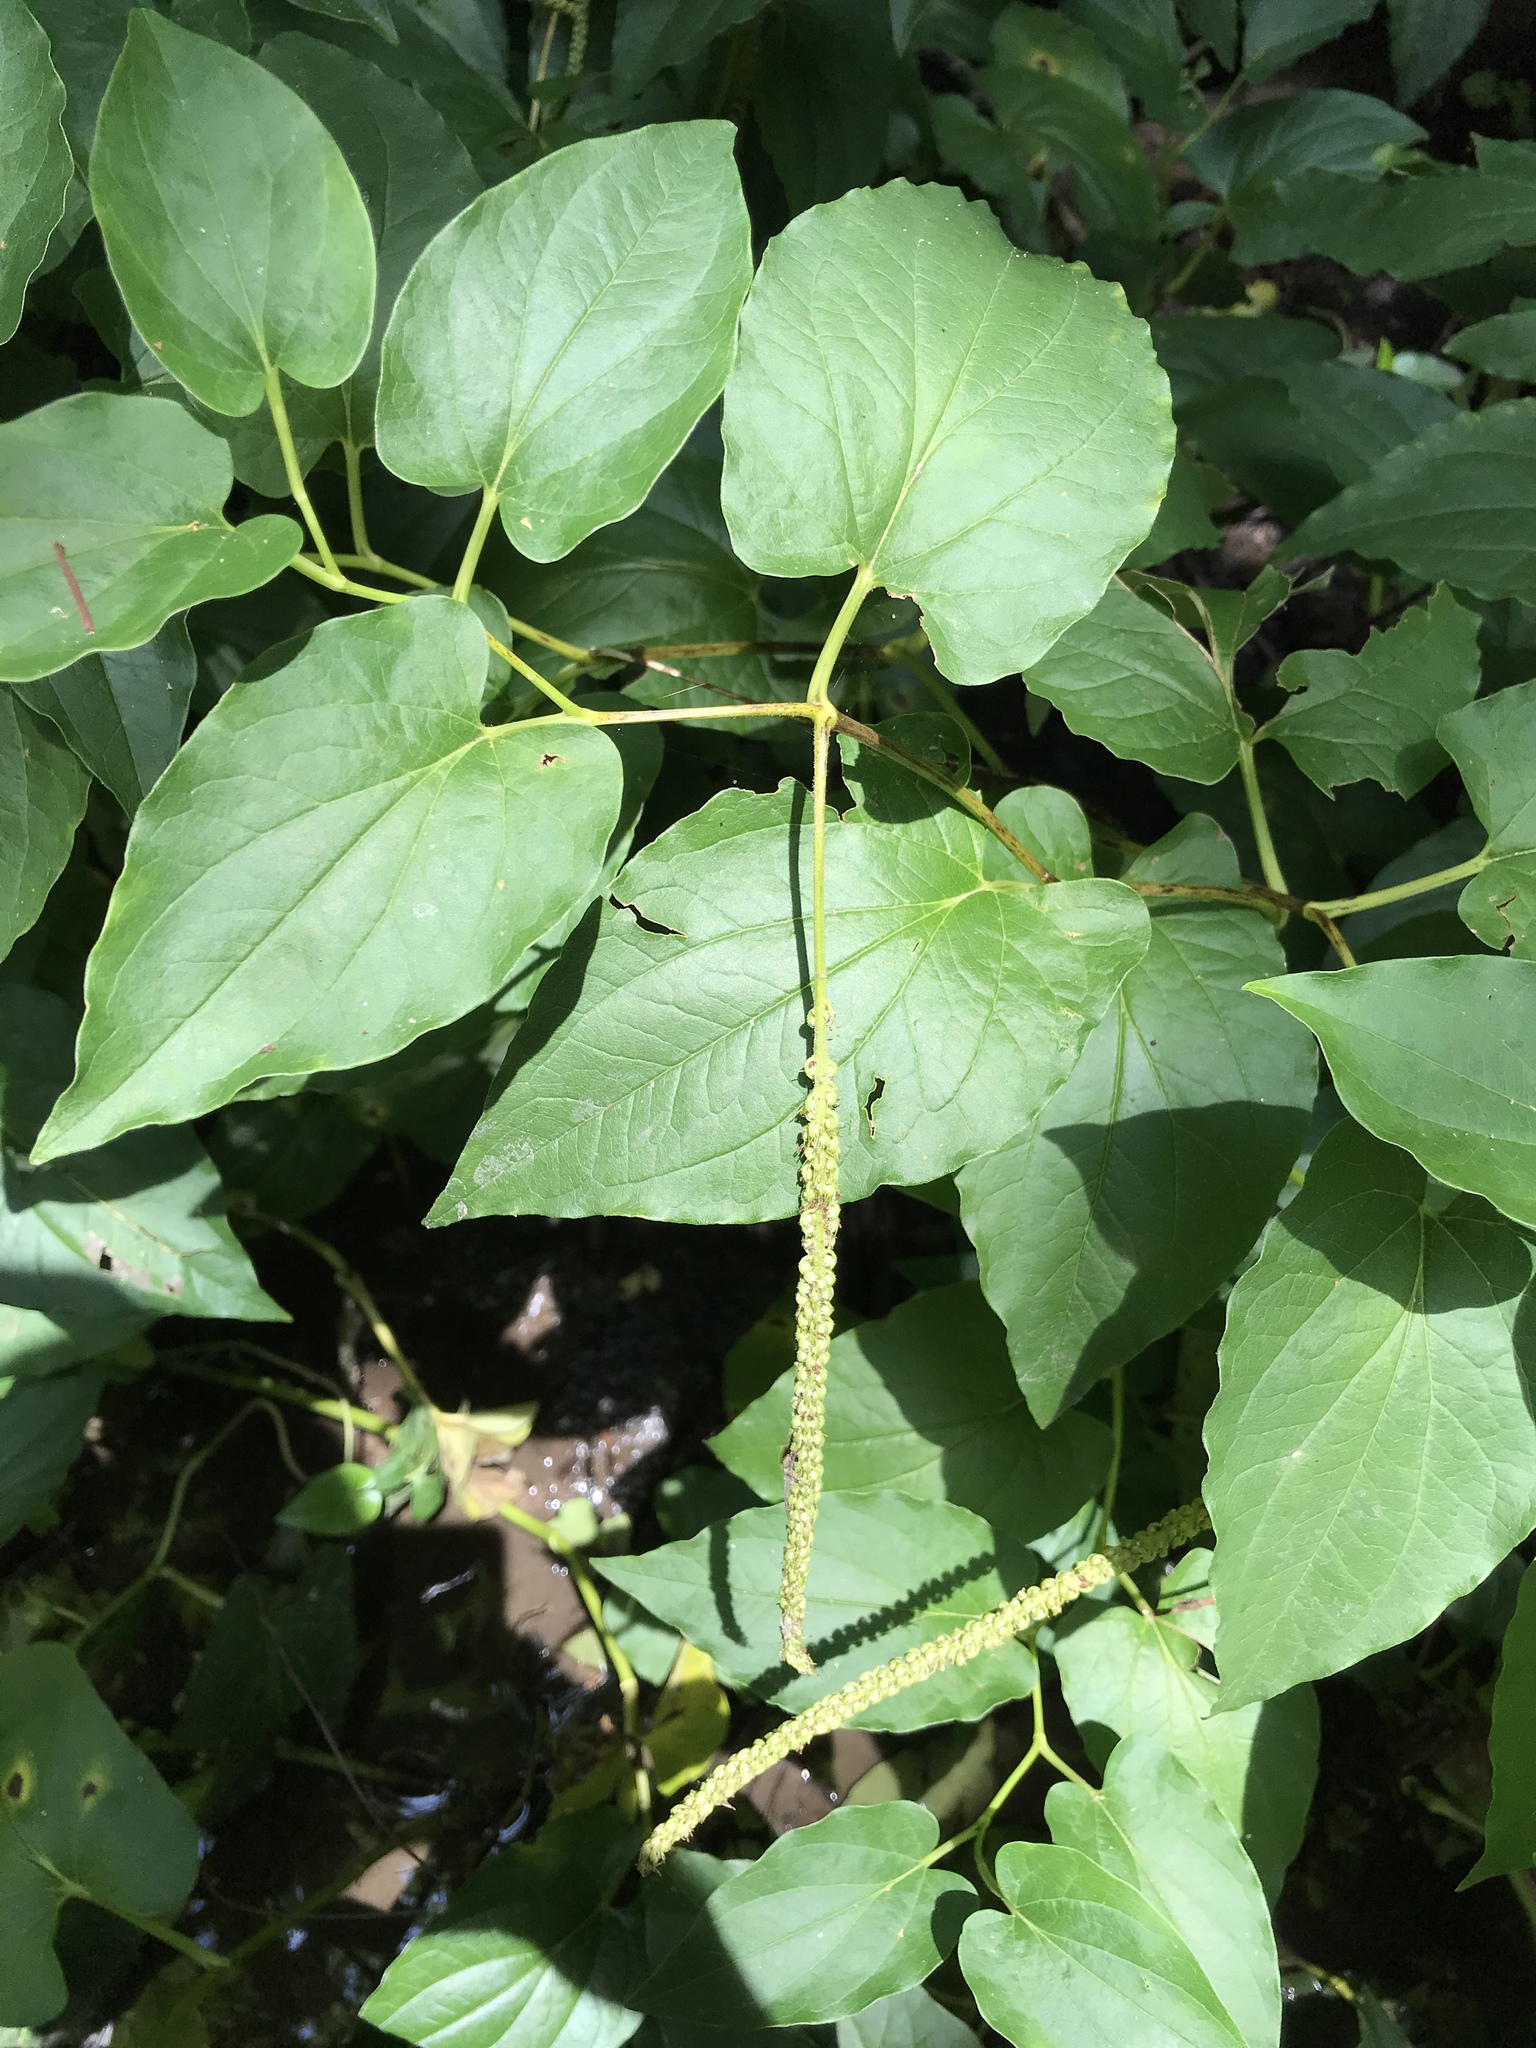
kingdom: Plantae
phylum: Tracheophyta
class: Magnoliopsida
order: Piperales
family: Saururaceae
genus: Saururus
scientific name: Saururus cernuus
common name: Lizard's-tail
